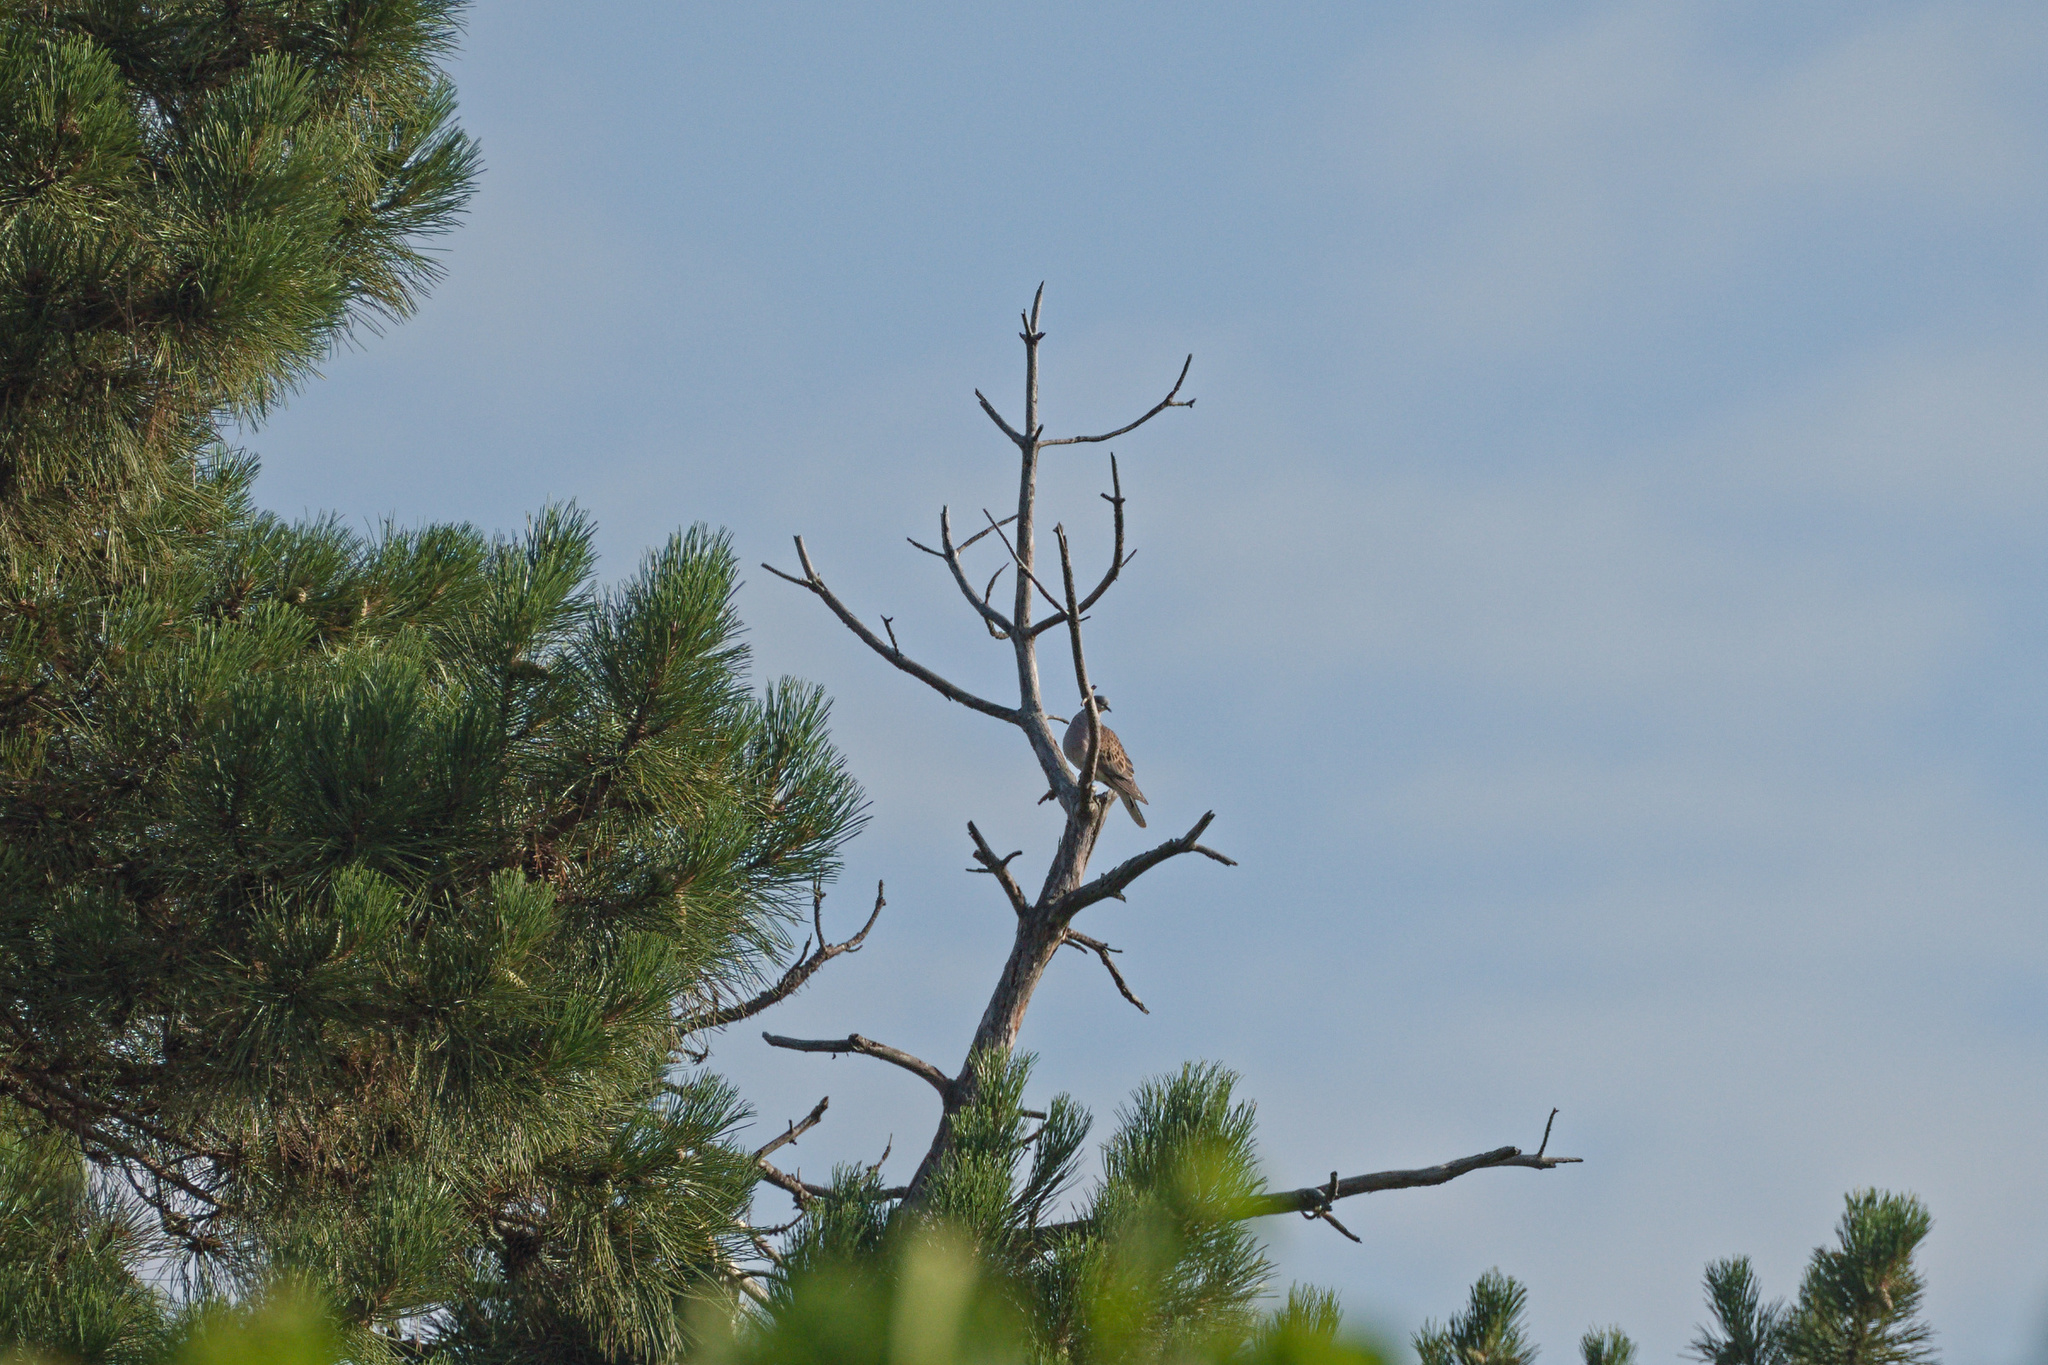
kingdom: Animalia
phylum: Chordata
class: Aves
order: Columbiformes
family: Columbidae
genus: Streptopelia
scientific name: Streptopelia turtur
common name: European turtle dove
